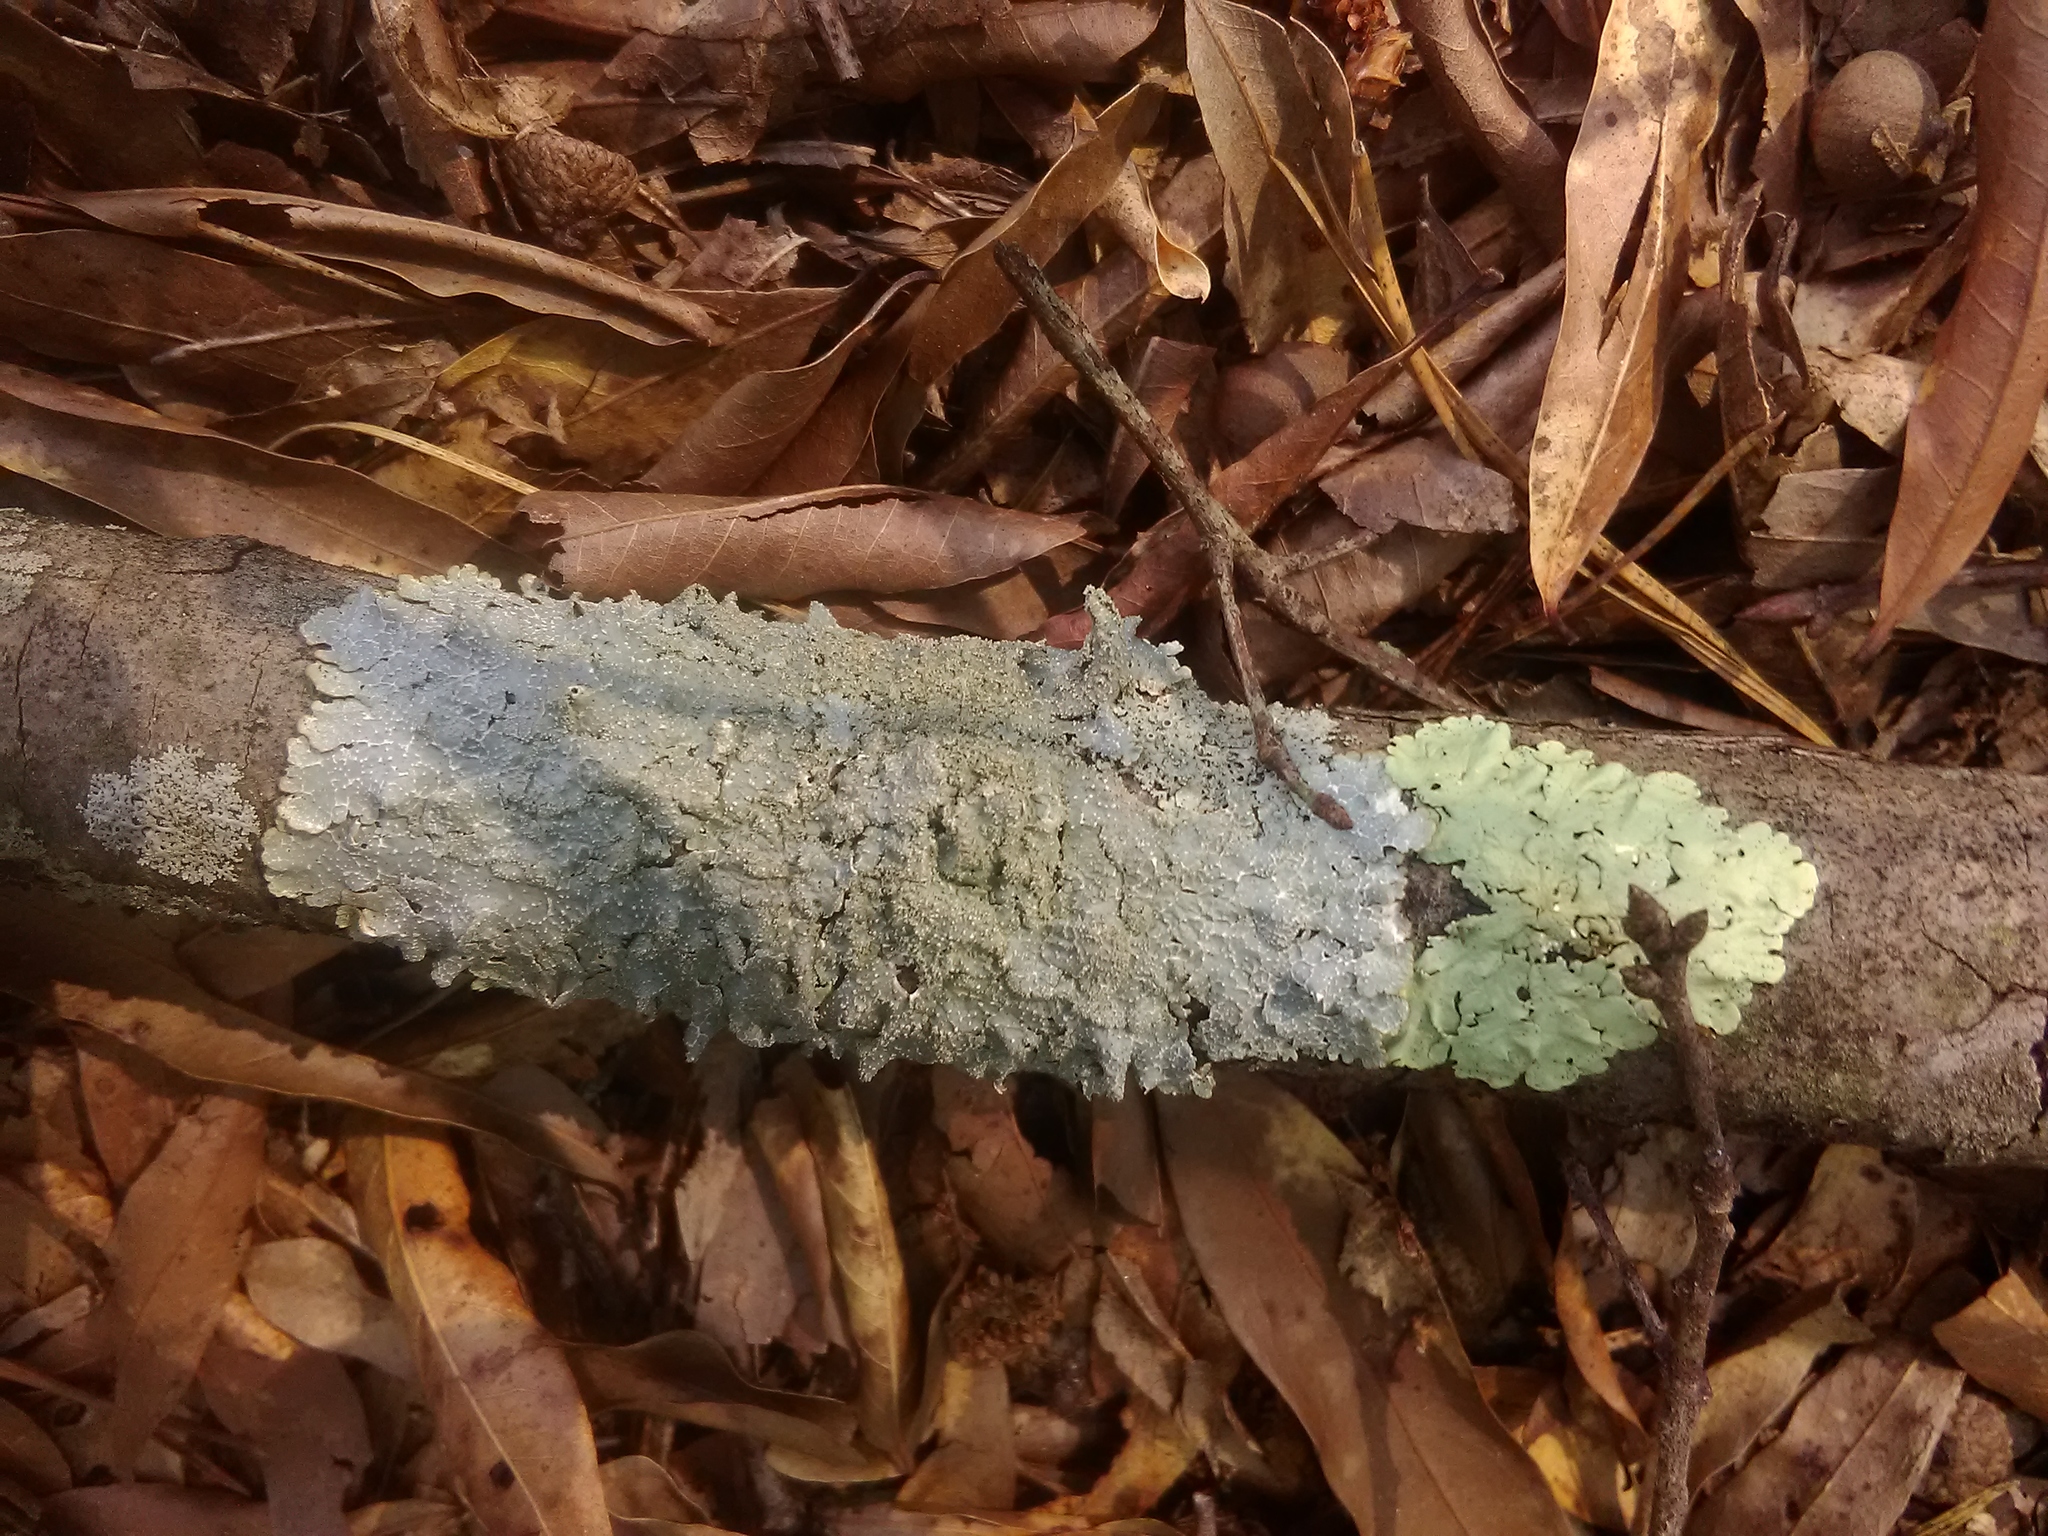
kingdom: Fungi
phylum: Ascomycota
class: Lecanoromycetes
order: Lecanorales
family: Parmeliaceae
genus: Punctelia
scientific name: Punctelia rudecta
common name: Rough speckled shield lichen
